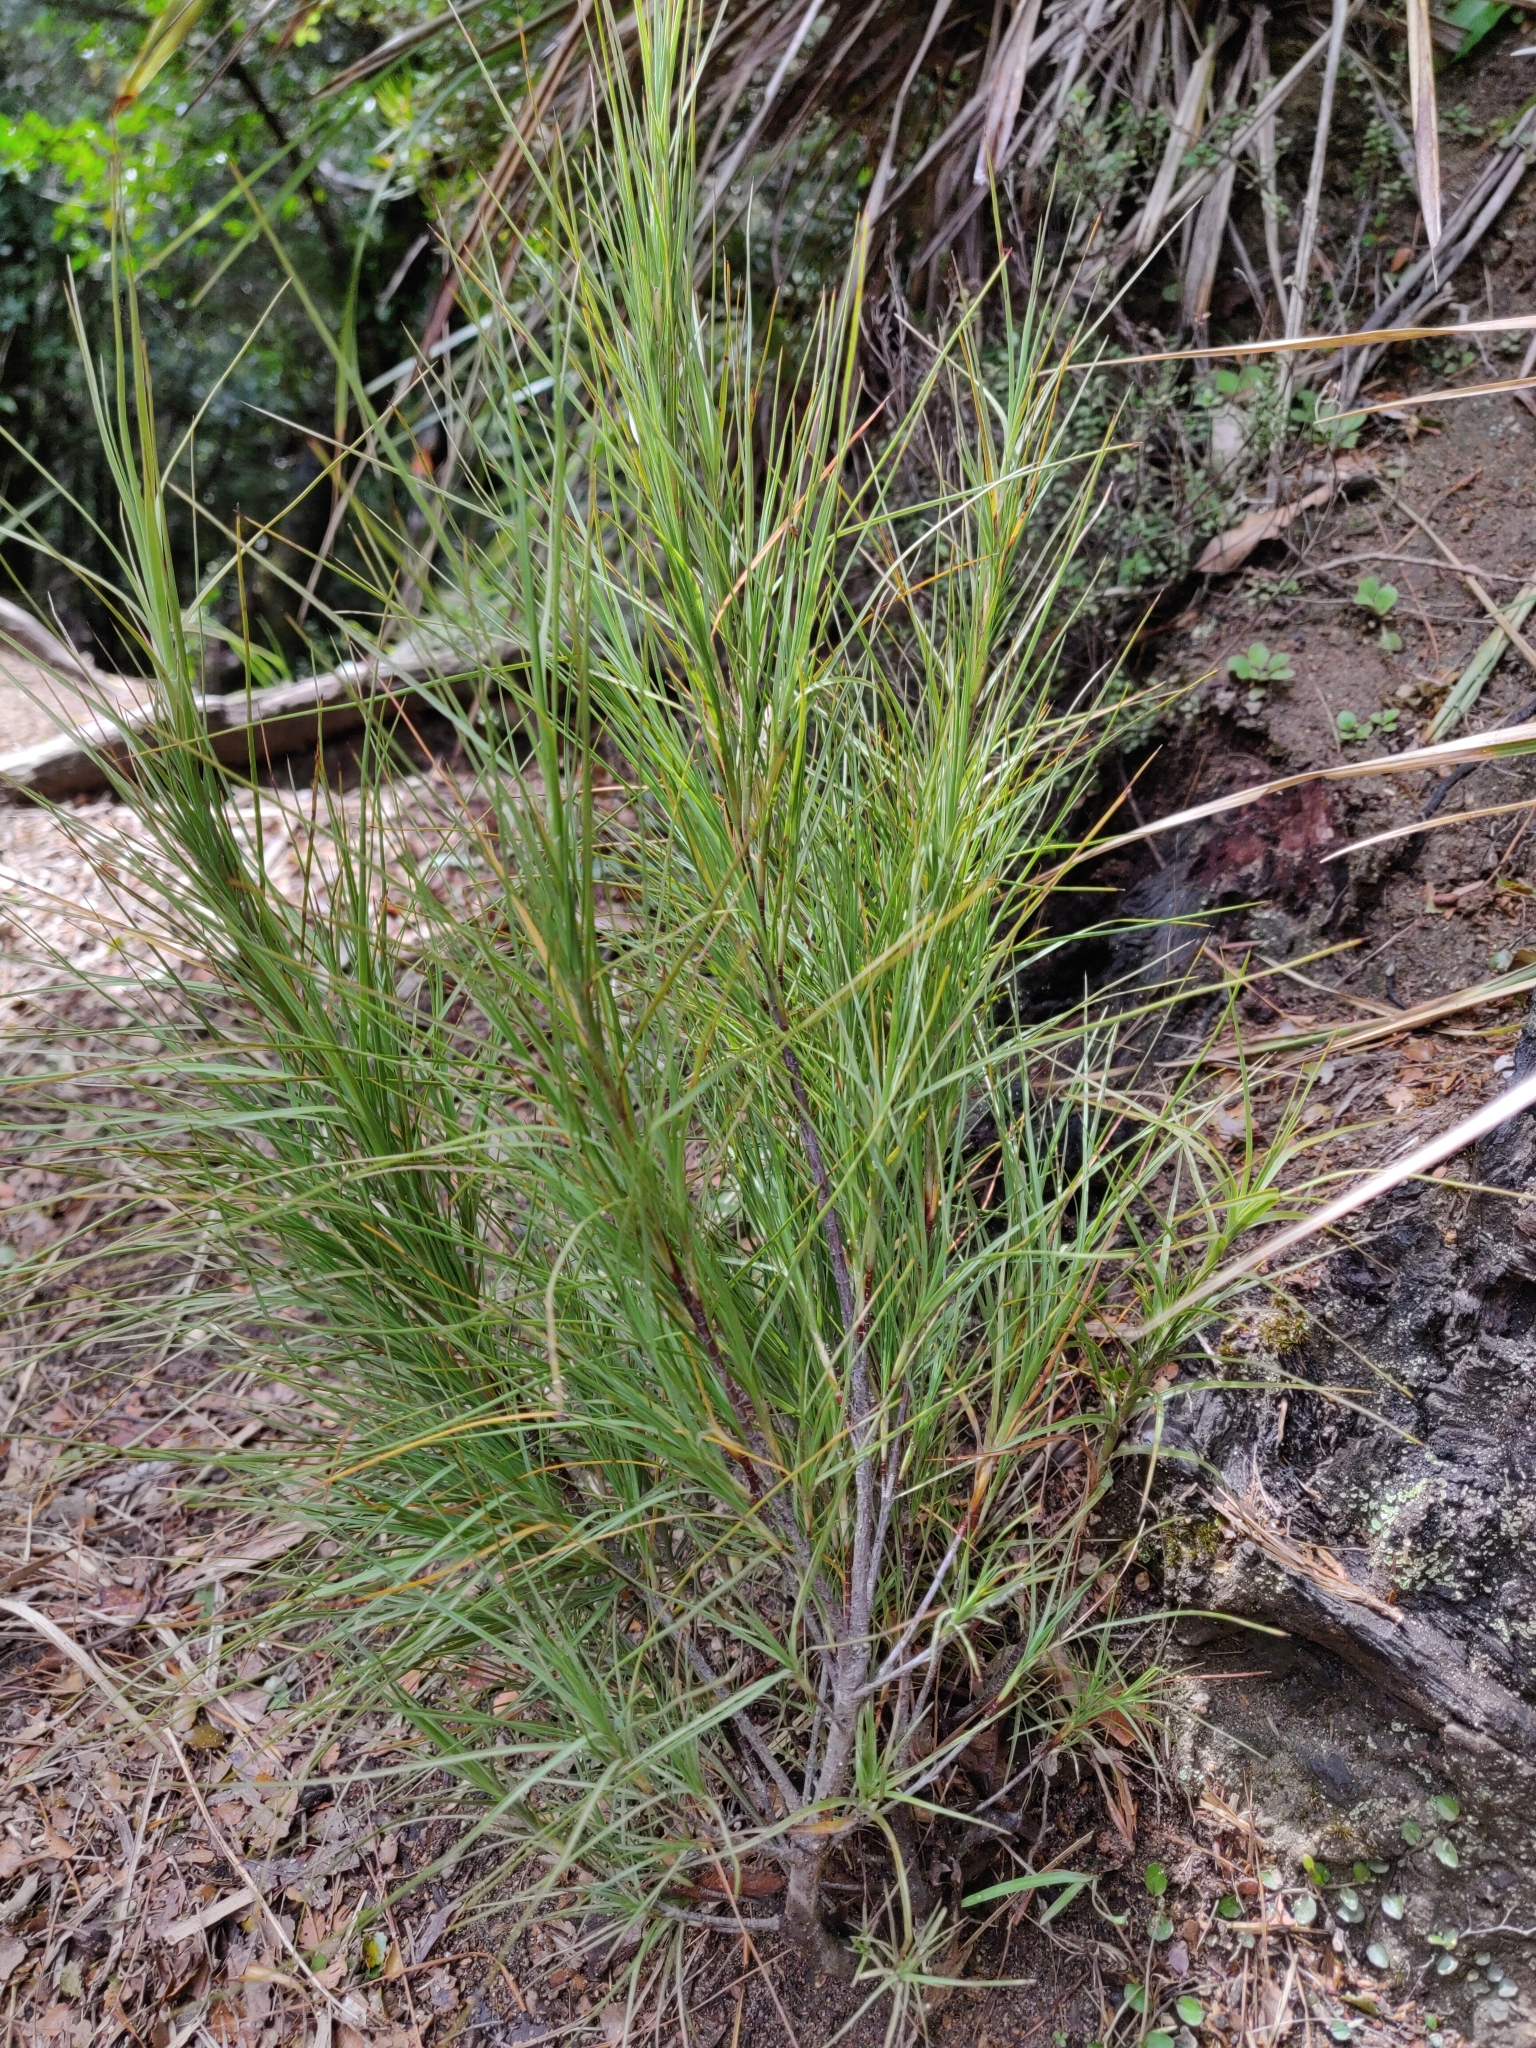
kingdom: Plantae
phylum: Tracheophyta
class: Magnoliopsida
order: Ericales
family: Ericaceae
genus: Dracophyllum
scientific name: Dracophyllum filifolium
